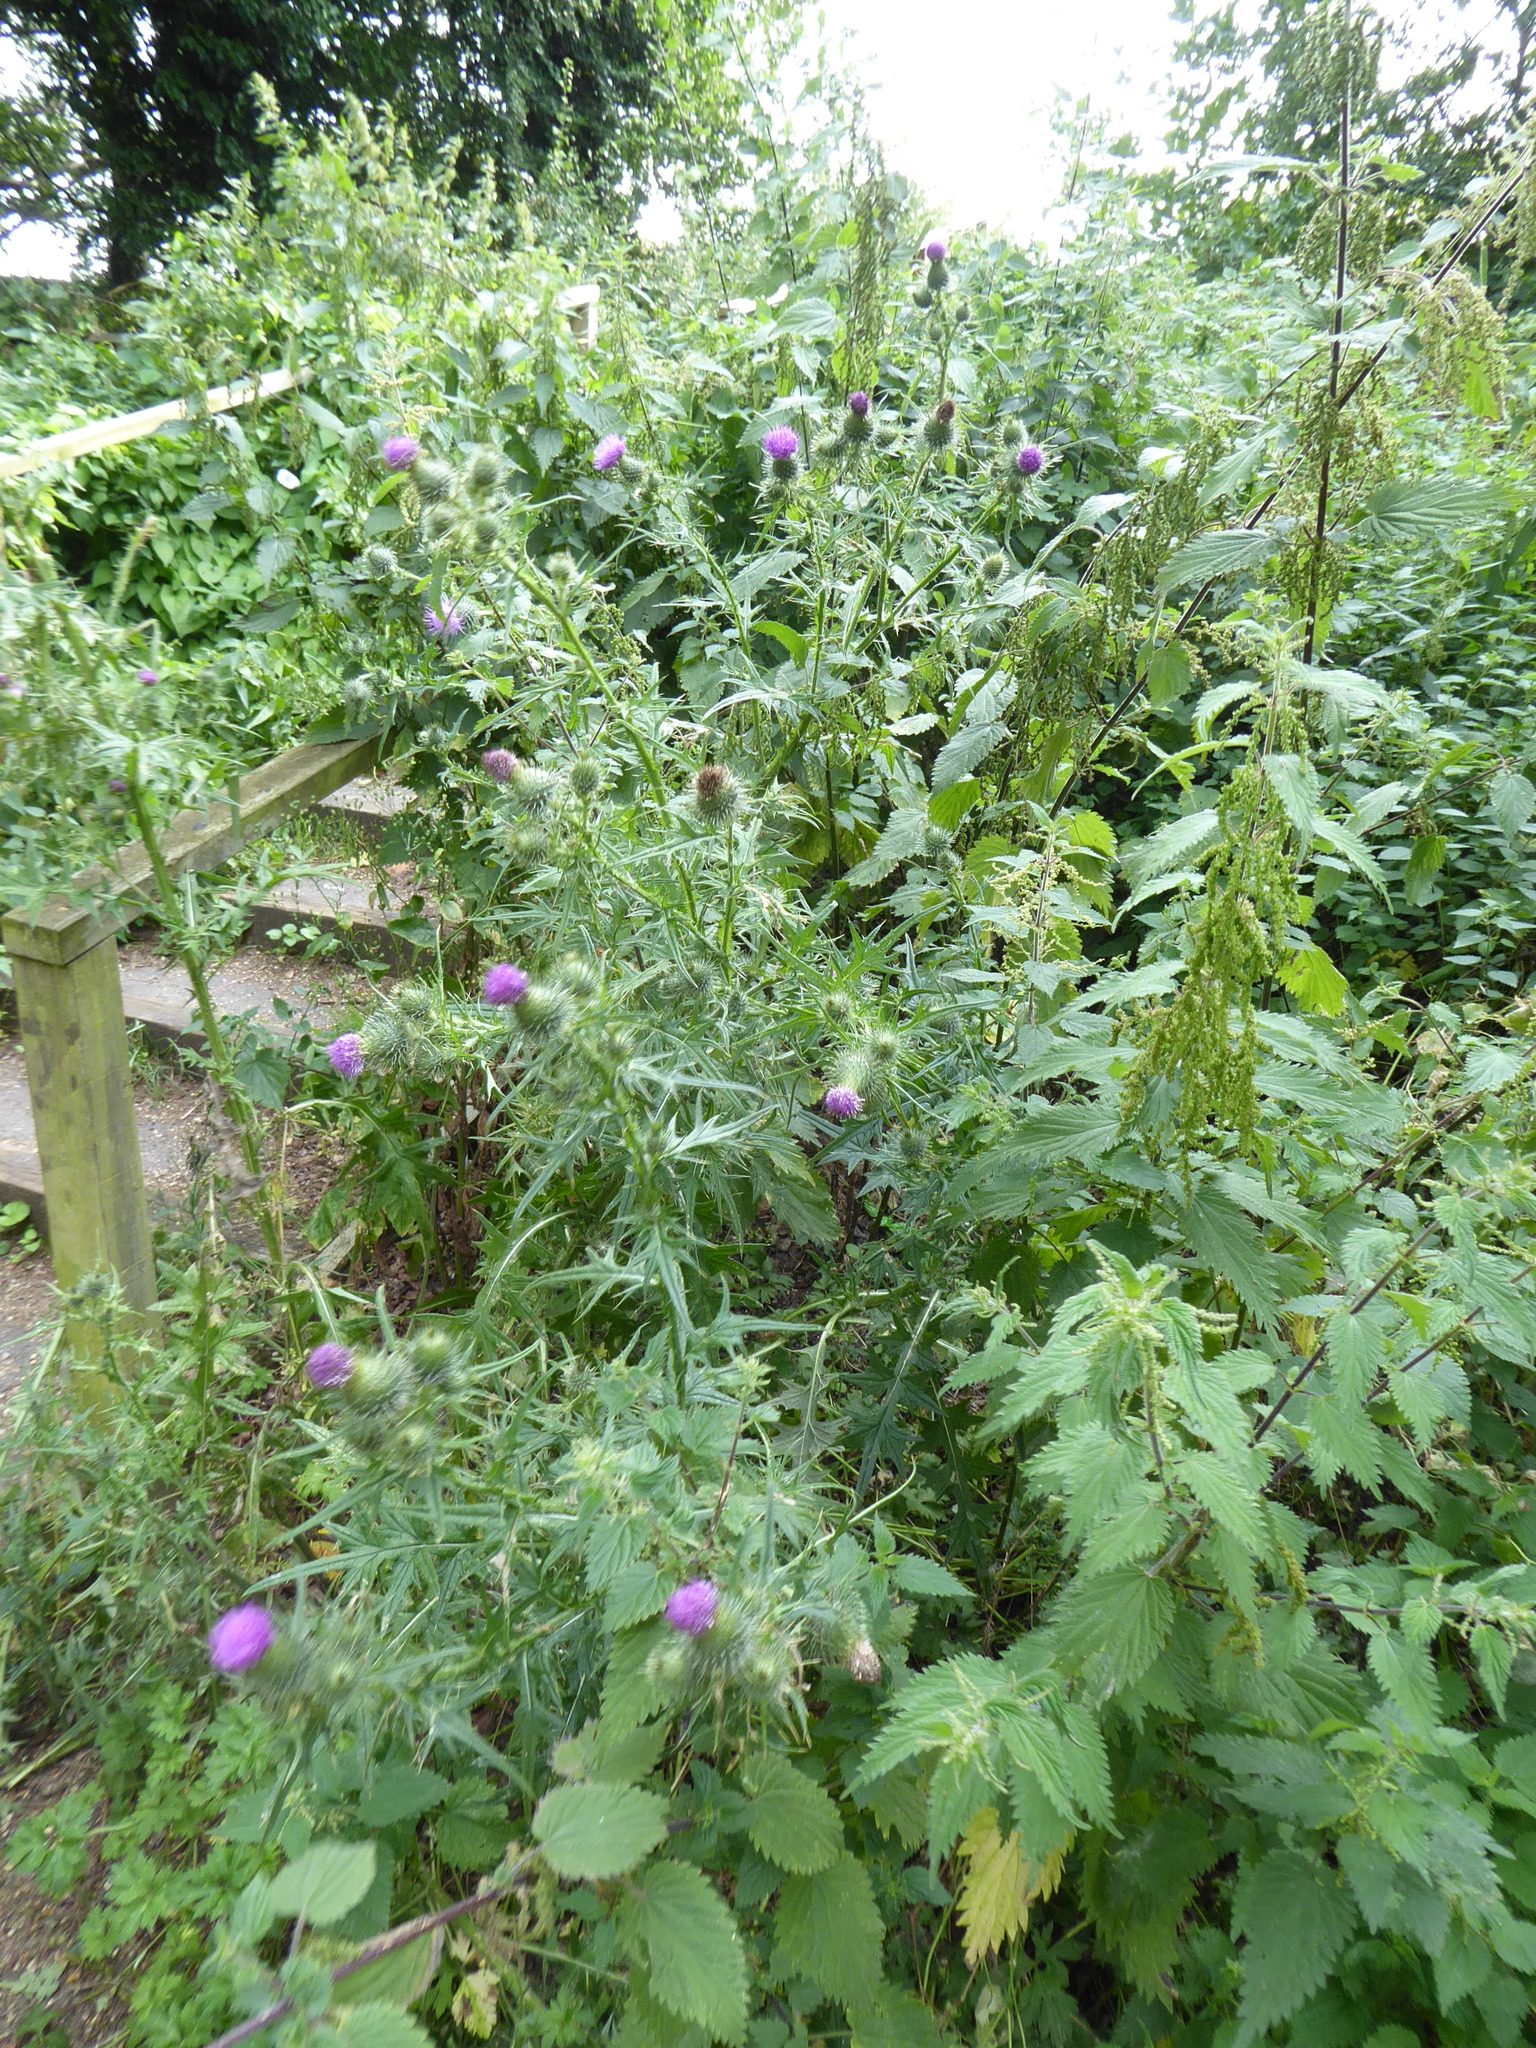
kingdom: Plantae
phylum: Tracheophyta
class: Magnoliopsida
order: Asterales
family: Asteraceae
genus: Cirsium
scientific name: Cirsium vulgare
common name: Bull thistle
